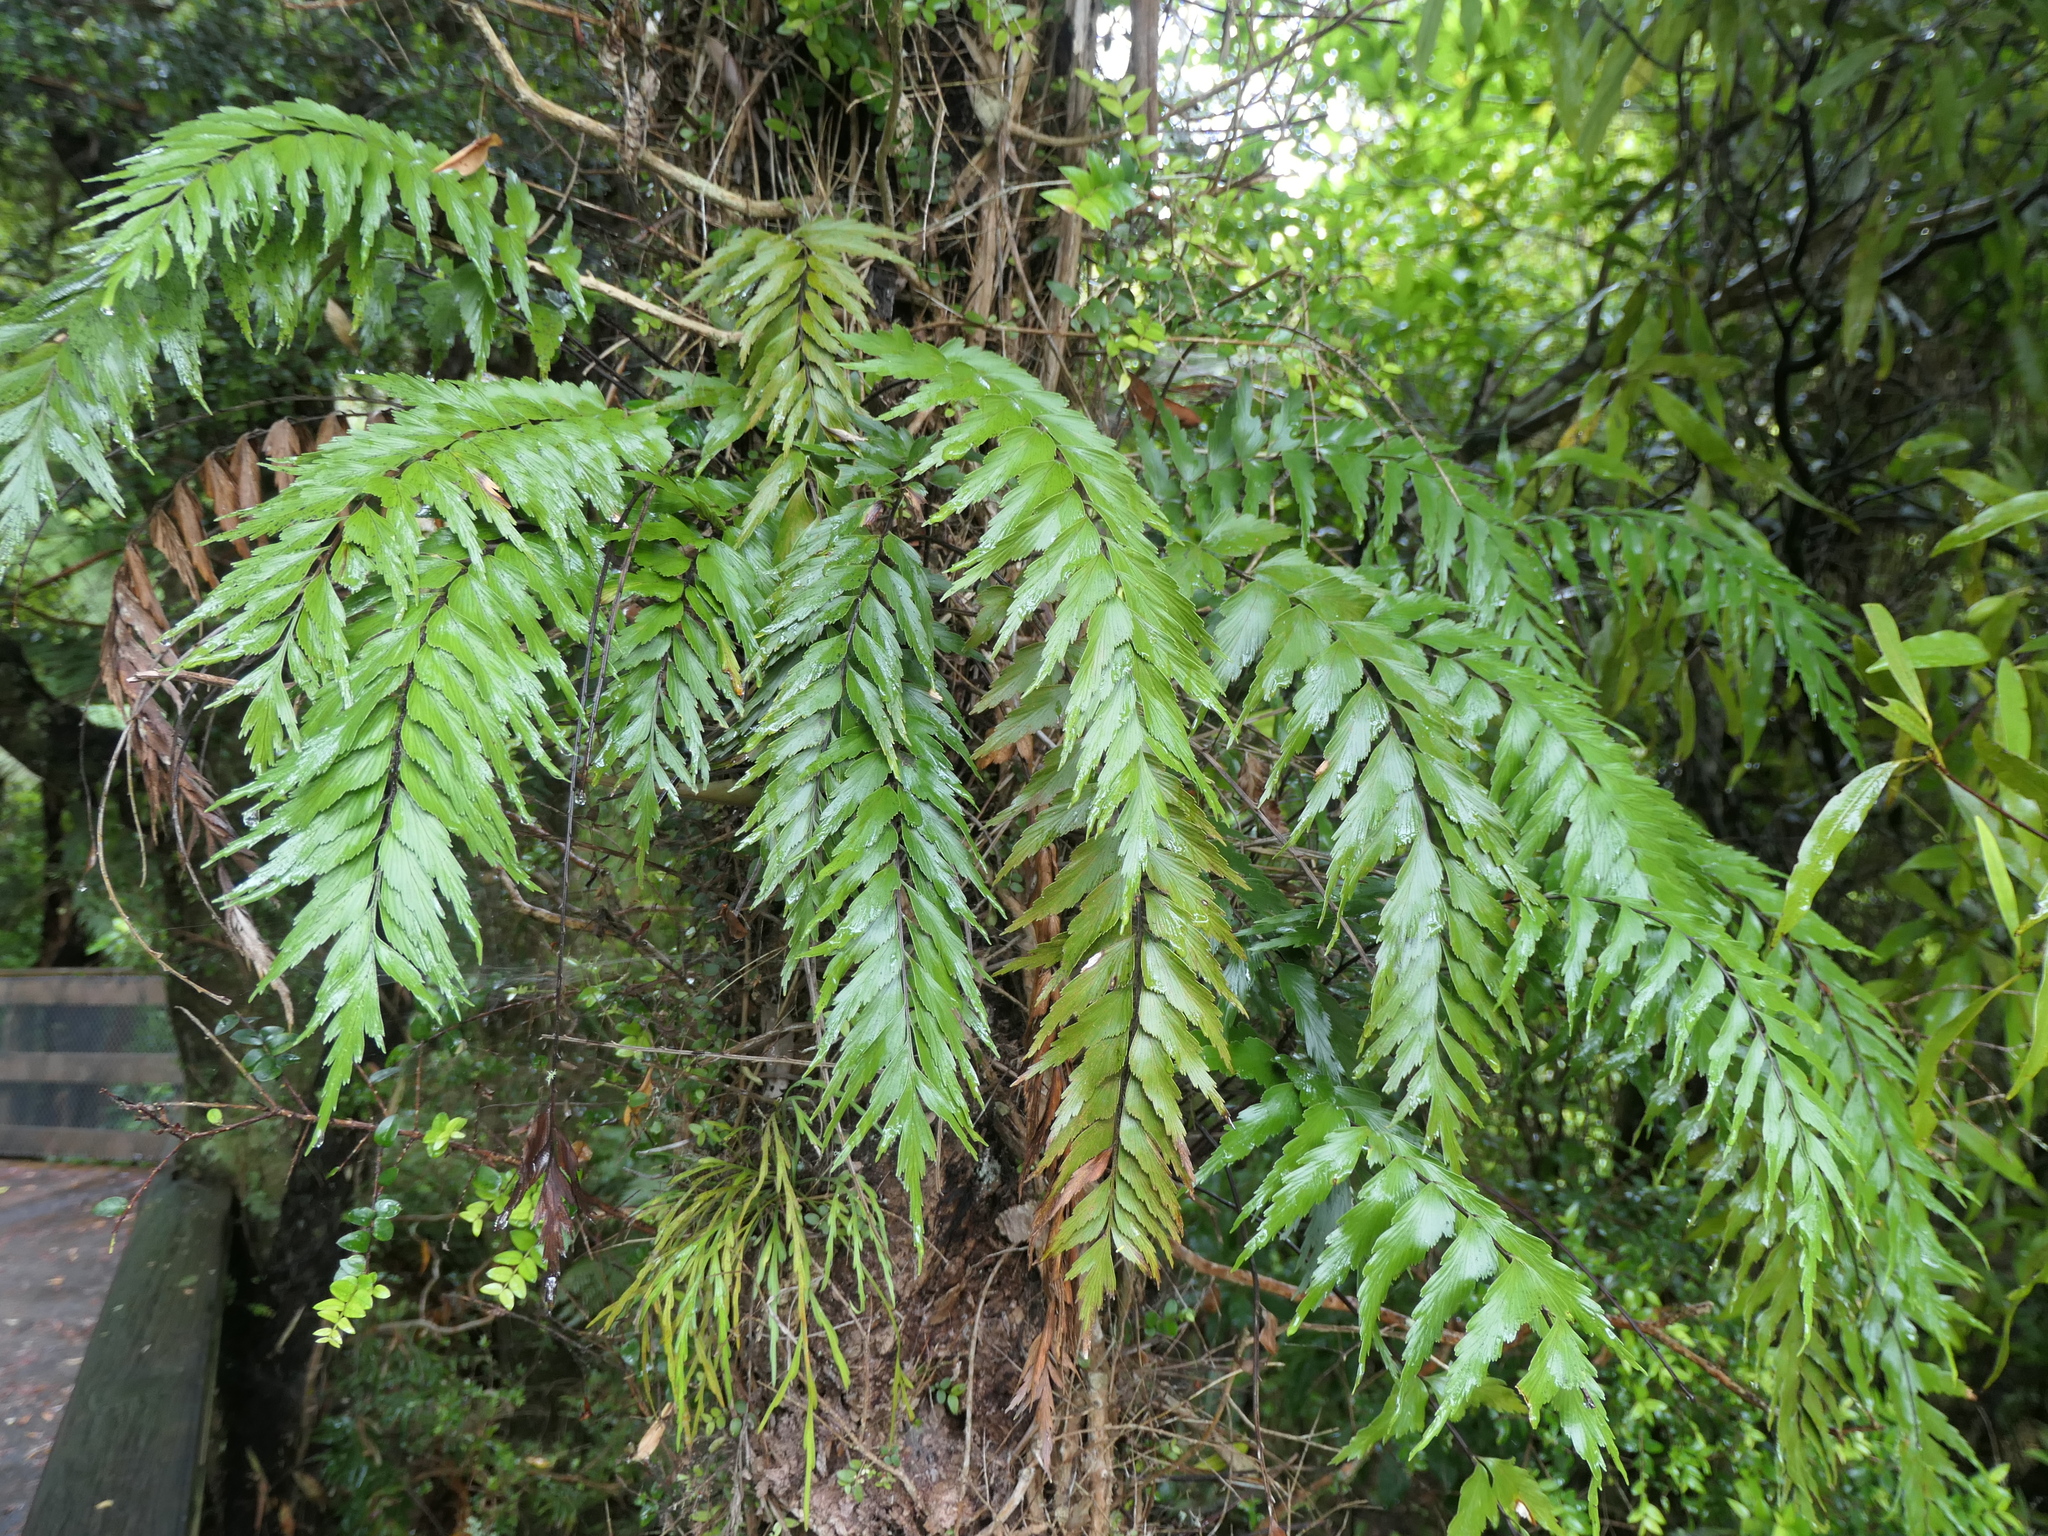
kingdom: Plantae
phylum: Tracheophyta
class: Polypodiopsida
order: Polypodiales
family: Aspleniaceae
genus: Asplenium
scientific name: Asplenium polyodon
